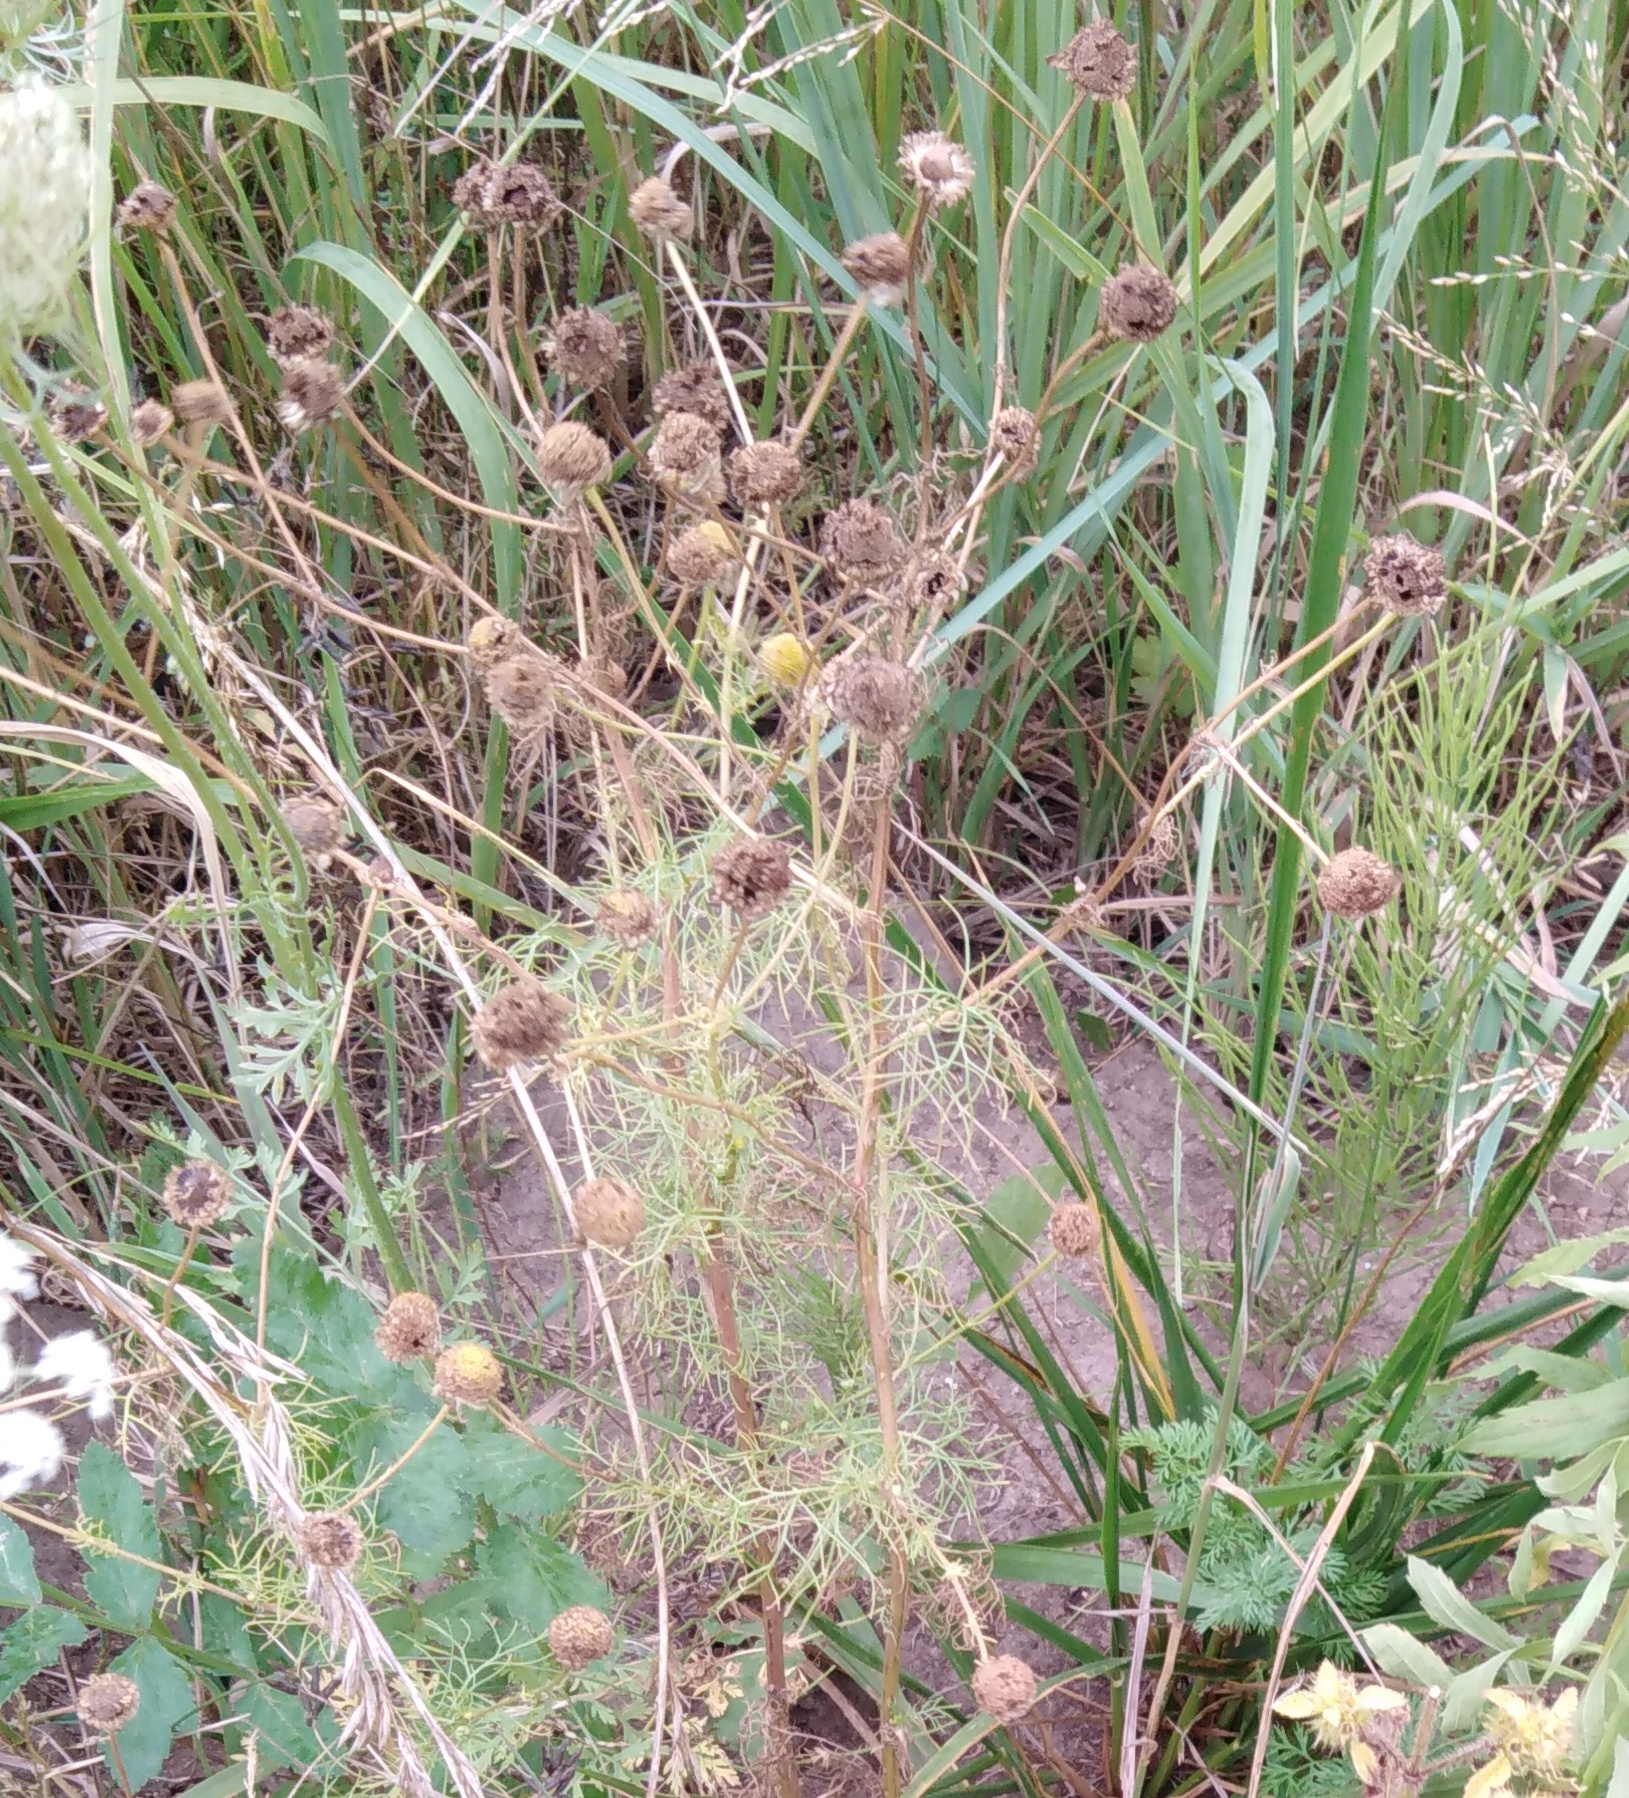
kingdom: Plantae
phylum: Tracheophyta
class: Magnoliopsida
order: Asterales
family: Asteraceae
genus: Tripleurospermum
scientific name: Tripleurospermum inodorum
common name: Scentless mayweed
